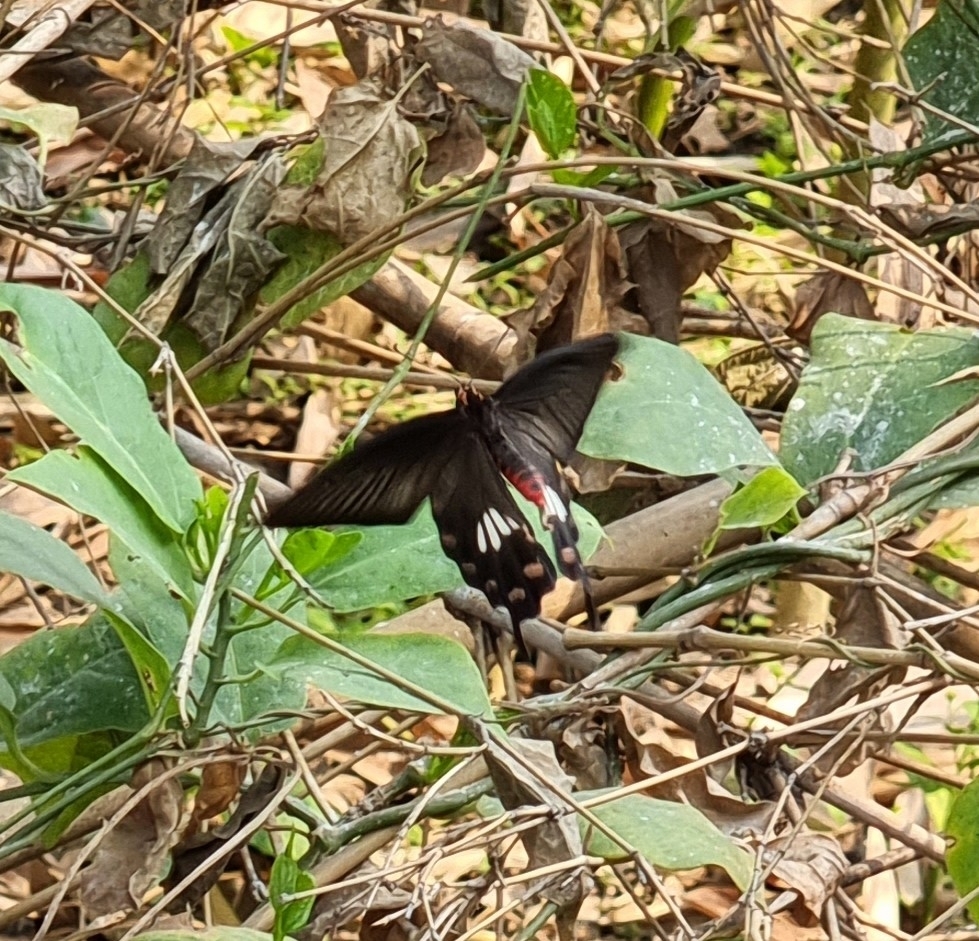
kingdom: Animalia
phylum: Arthropoda
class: Insecta
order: Lepidoptera
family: Papilionidae
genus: Pachliopta
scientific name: Pachliopta aristolochiae
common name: Common rose
